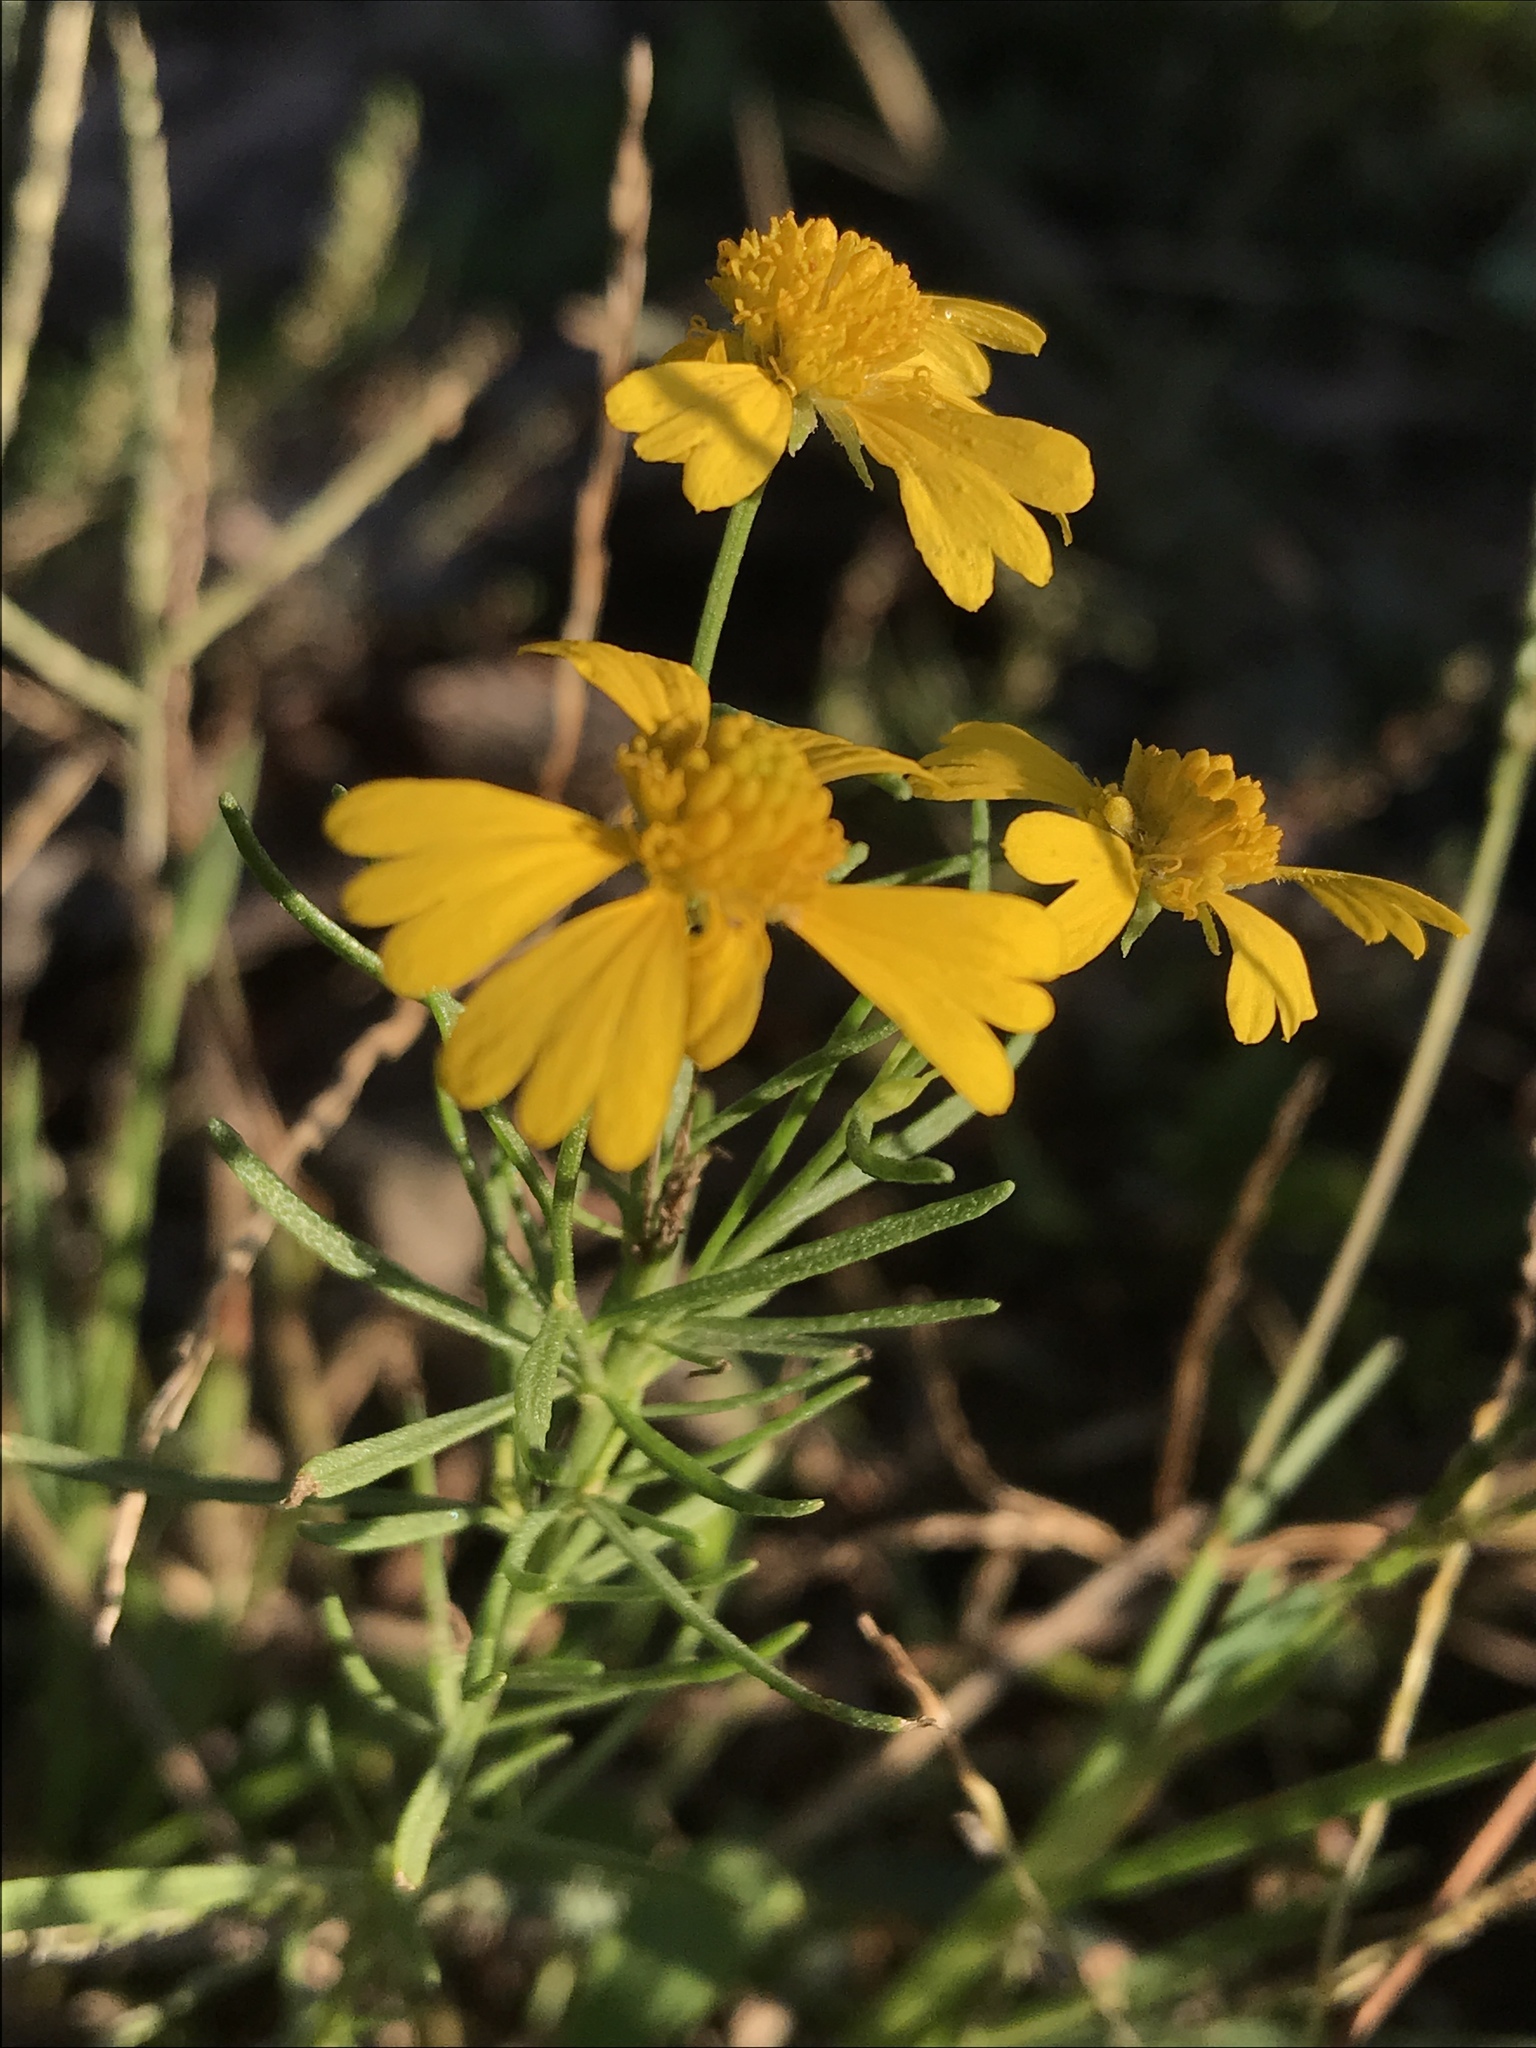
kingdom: Plantae
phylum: Tracheophyta
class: Magnoliopsida
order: Asterales
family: Asteraceae
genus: Helenium
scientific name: Helenium amarum
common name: Bitter sneezeweed
